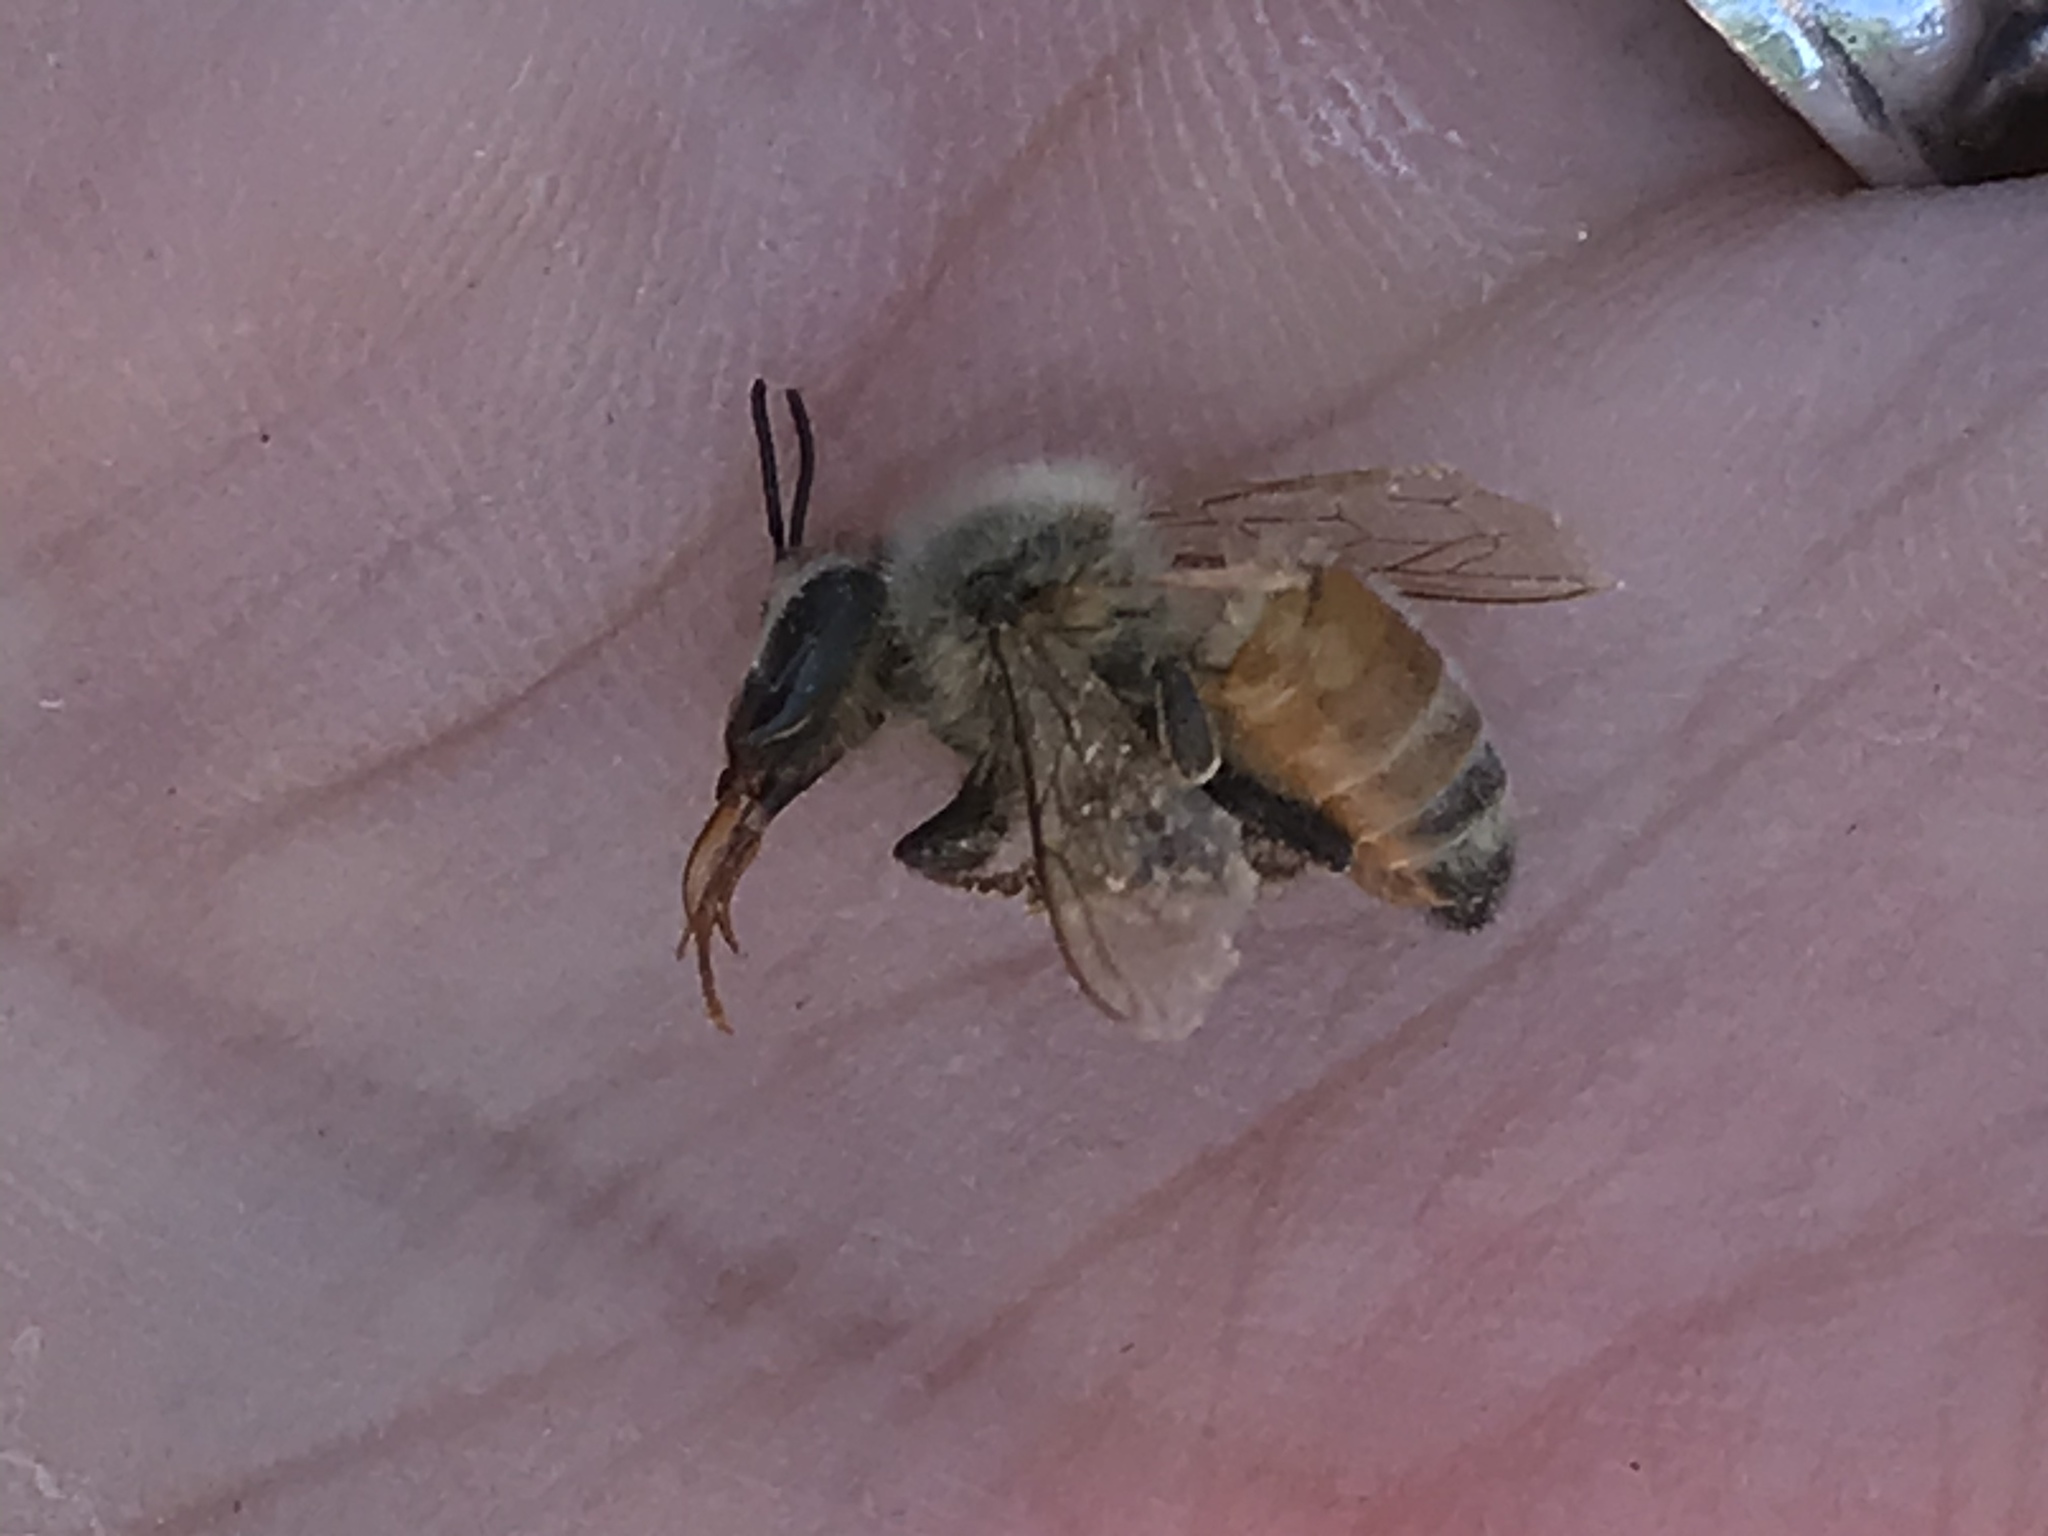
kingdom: Animalia
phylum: Arthropoda
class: Insecta
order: Hymenoptera
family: Apidae
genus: Apis
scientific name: Apis mellifera
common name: Honey bee
